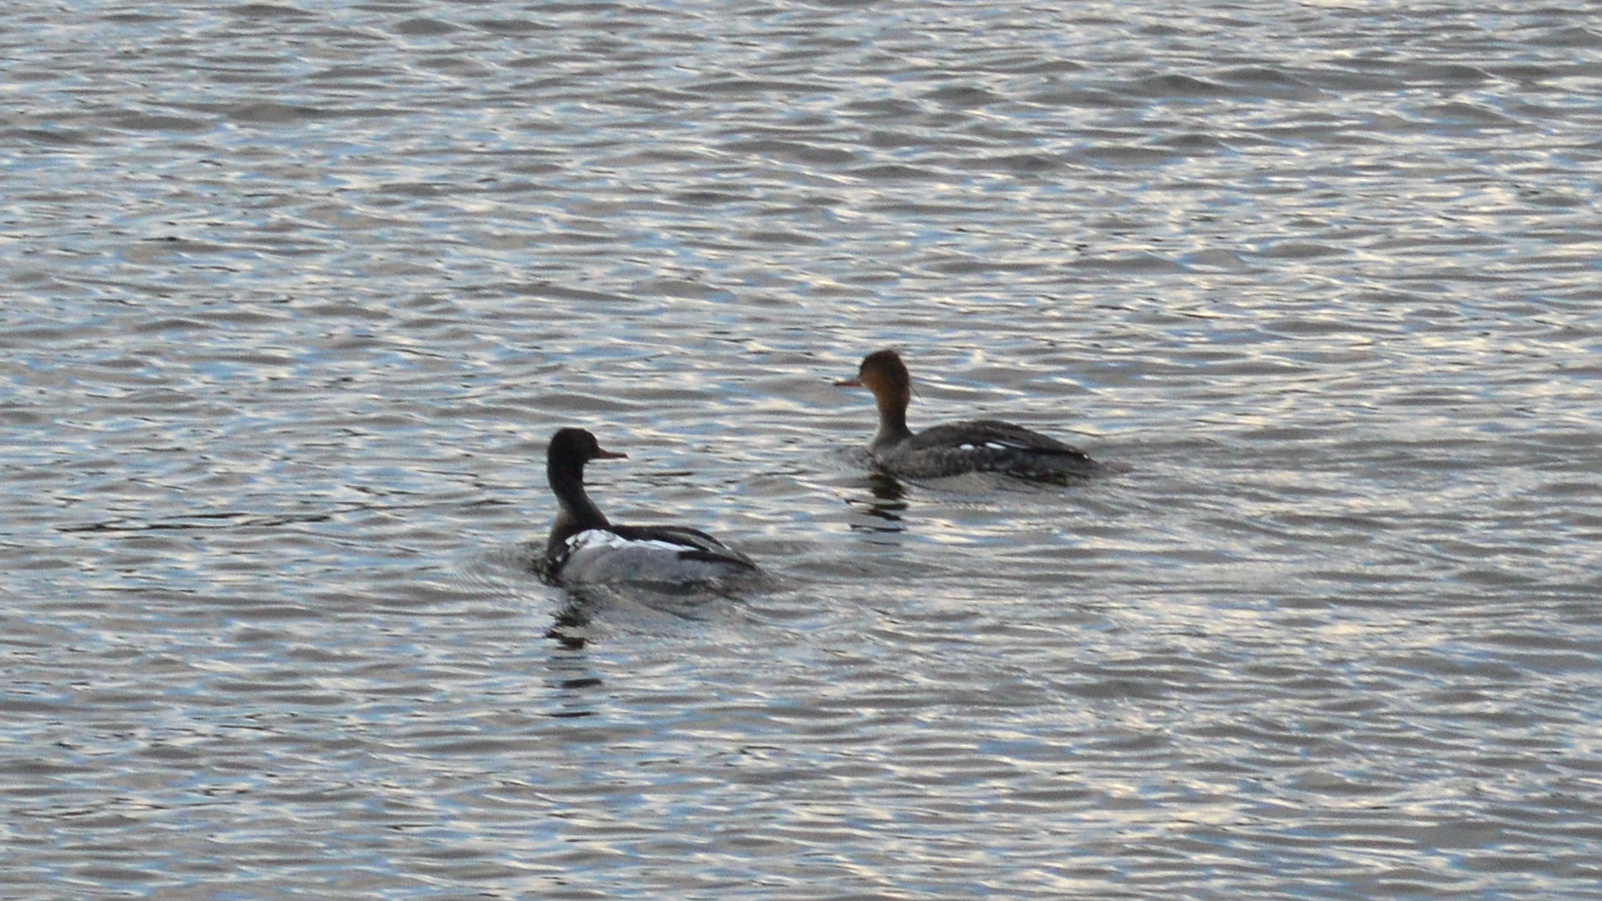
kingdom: Animalia
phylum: Chordata
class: Aves
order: Anseriformes
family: Anatidae
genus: Mergus
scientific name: Mergus serrator
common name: Red-breasted merganser
